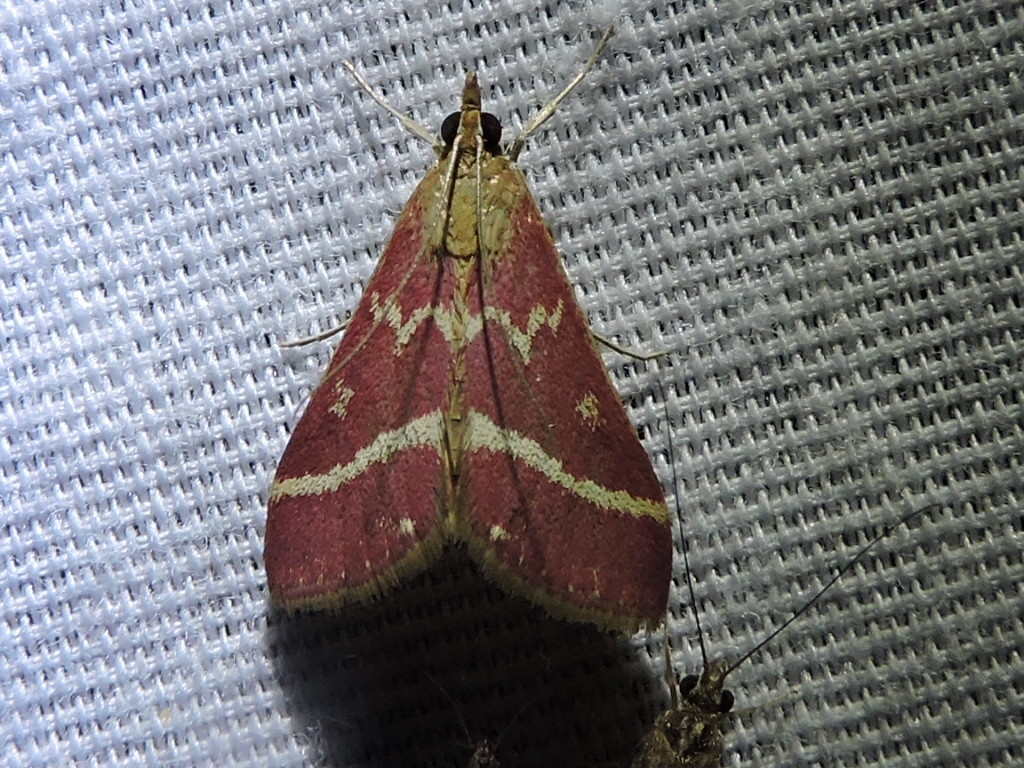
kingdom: Animalia
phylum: Arthropoda
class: Insecta
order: Lepidoptera
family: Crambidae
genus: Pyrausta
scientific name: Pyrausta volupialis
